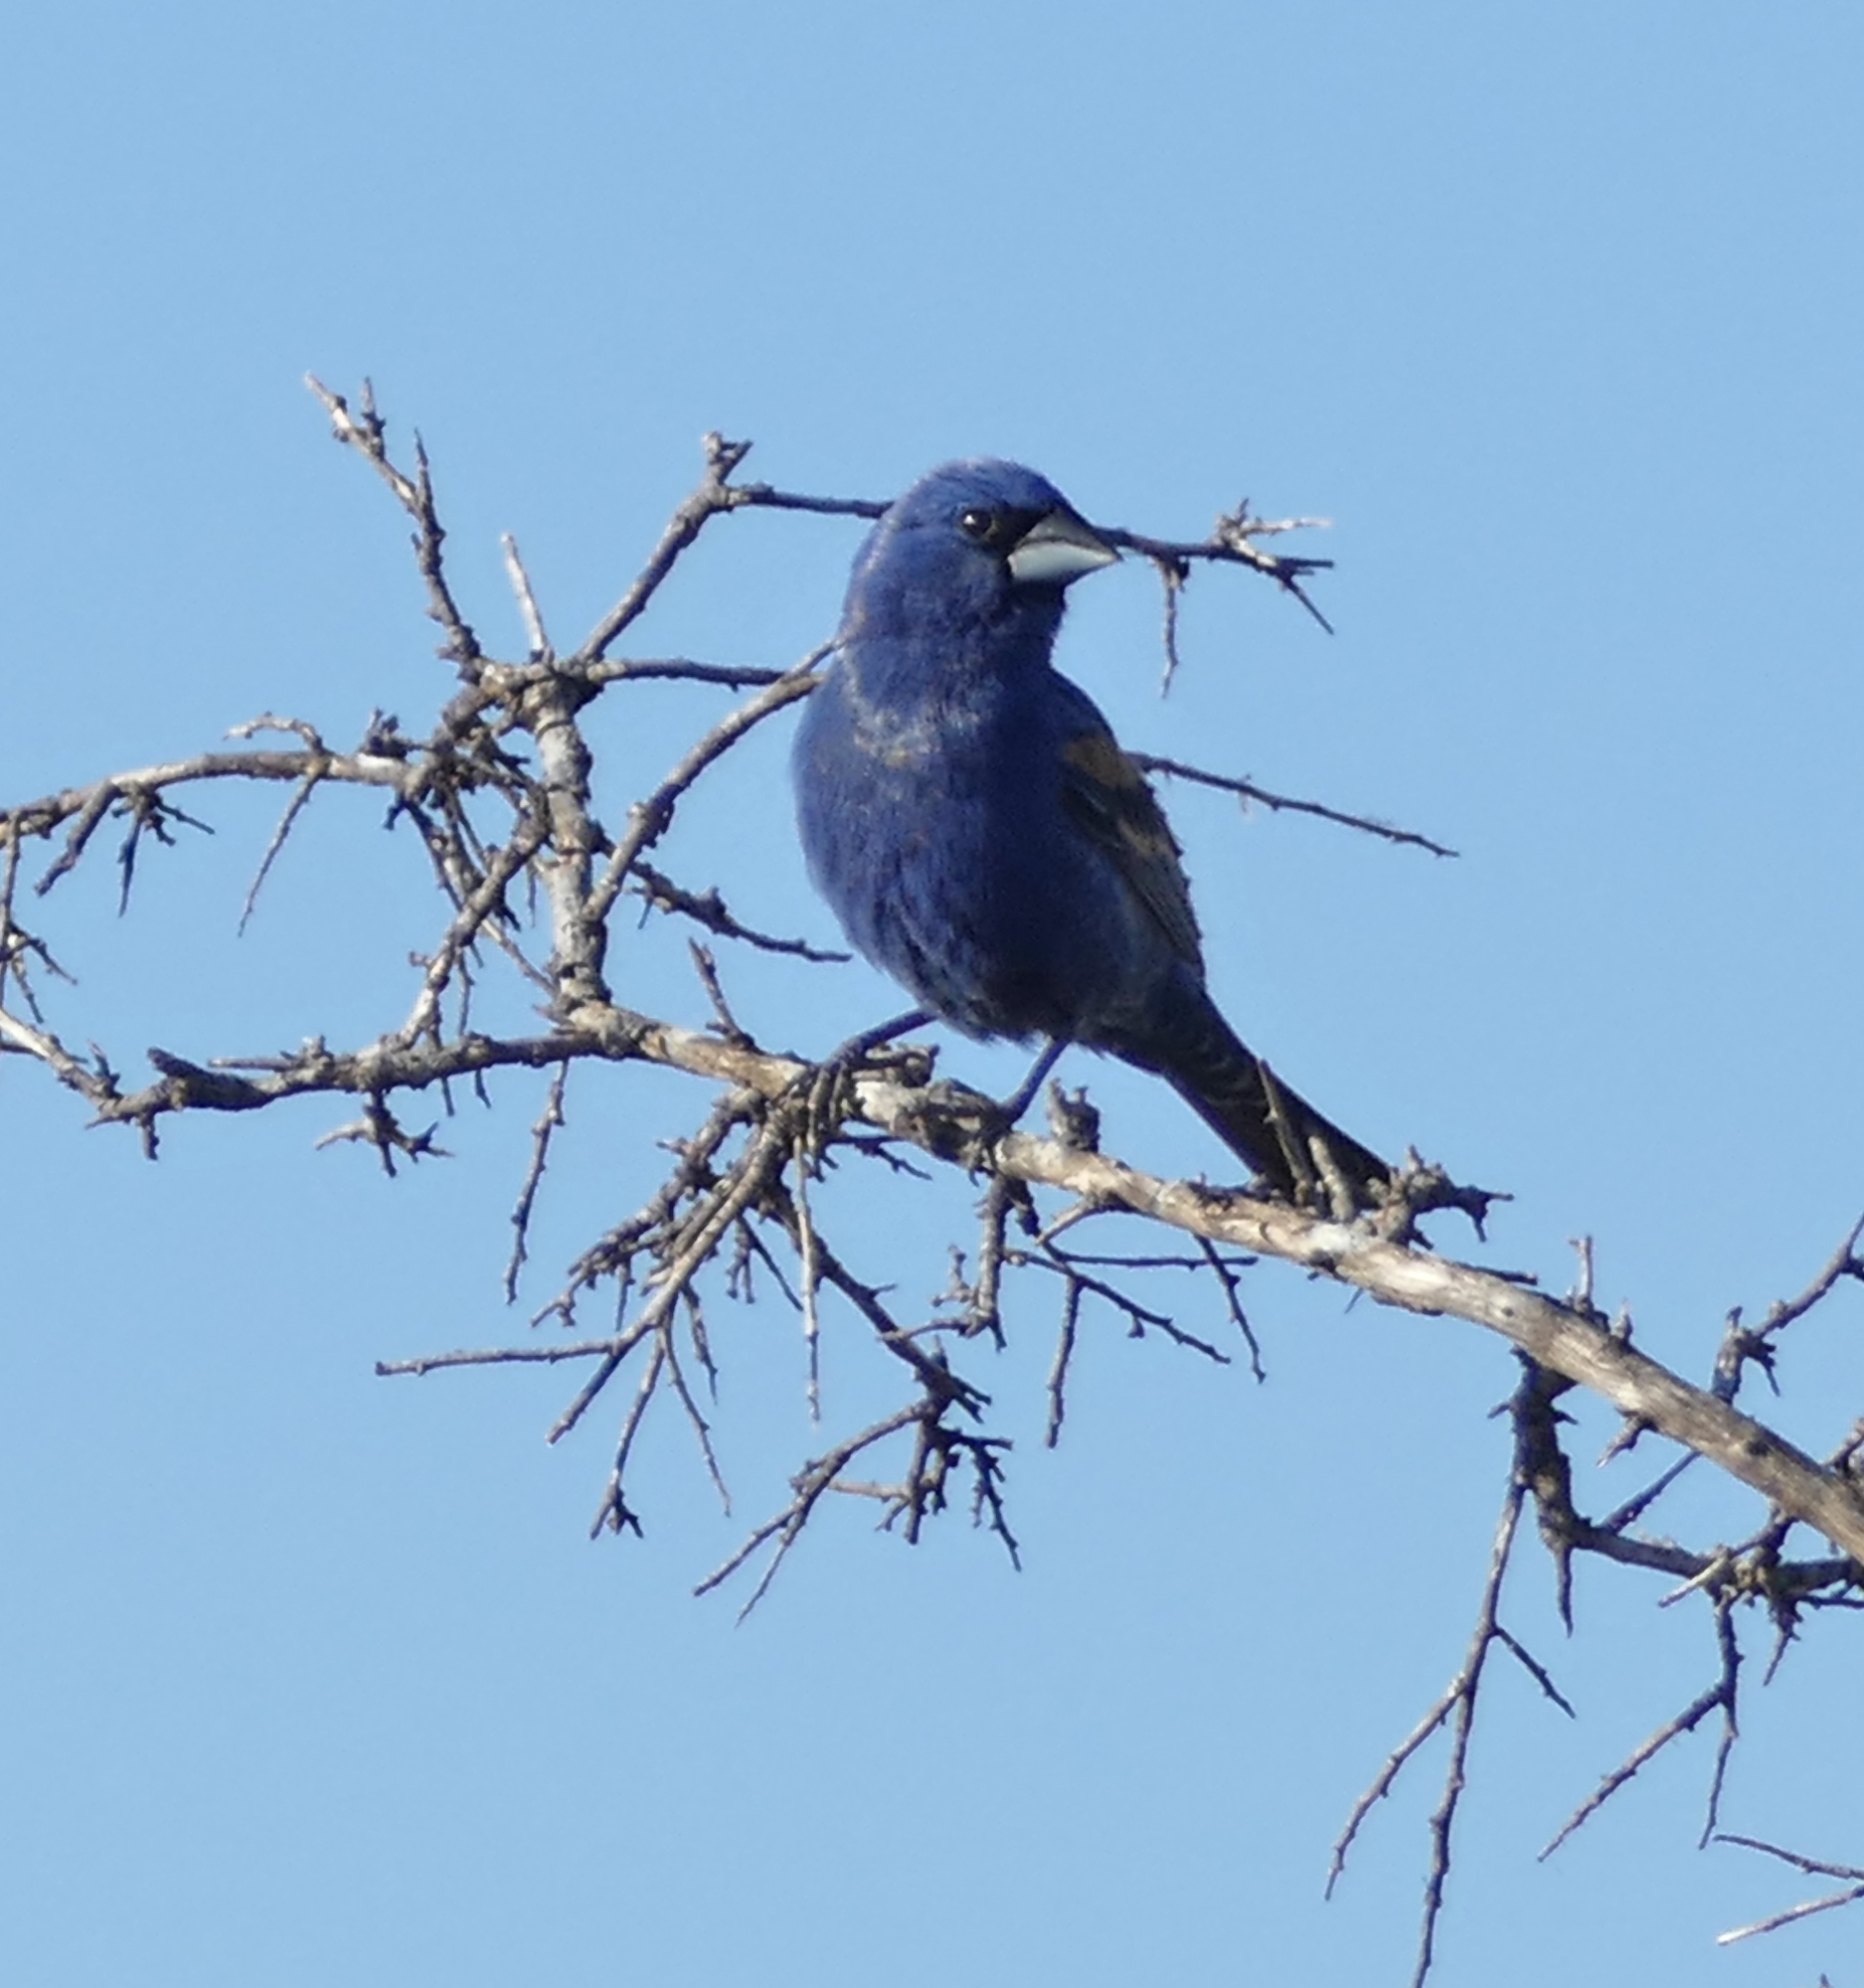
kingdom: Animalia
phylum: Chordata
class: Aves
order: Passeriformes
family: Cardinalidae
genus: Passerina
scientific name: Passerina caerulea
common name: Blue grosbeak
